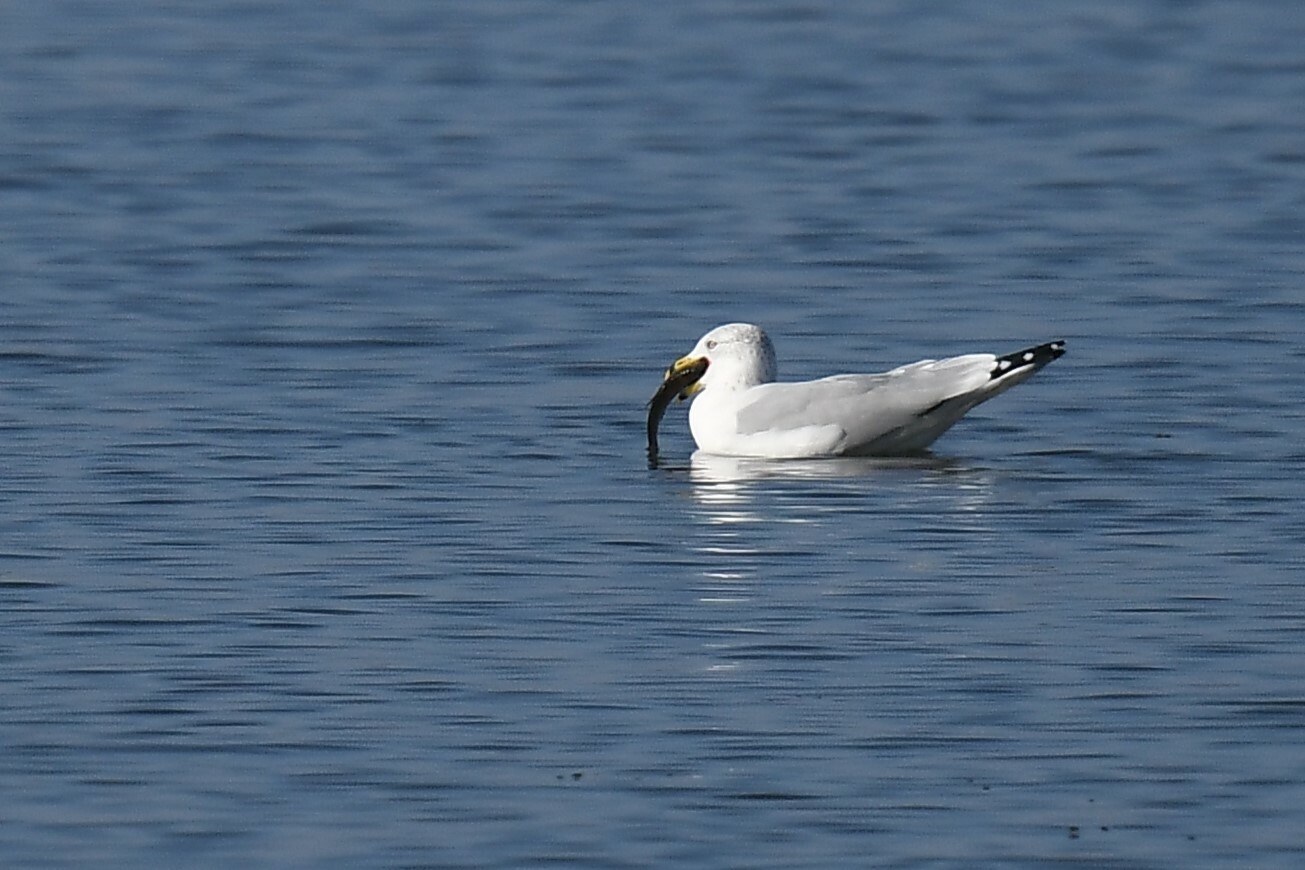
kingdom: Animalia
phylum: Chordata
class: Aves
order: Charadriiformes
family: Laridae
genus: Larus
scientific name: Larus delawarensis
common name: Ring-billed gull
